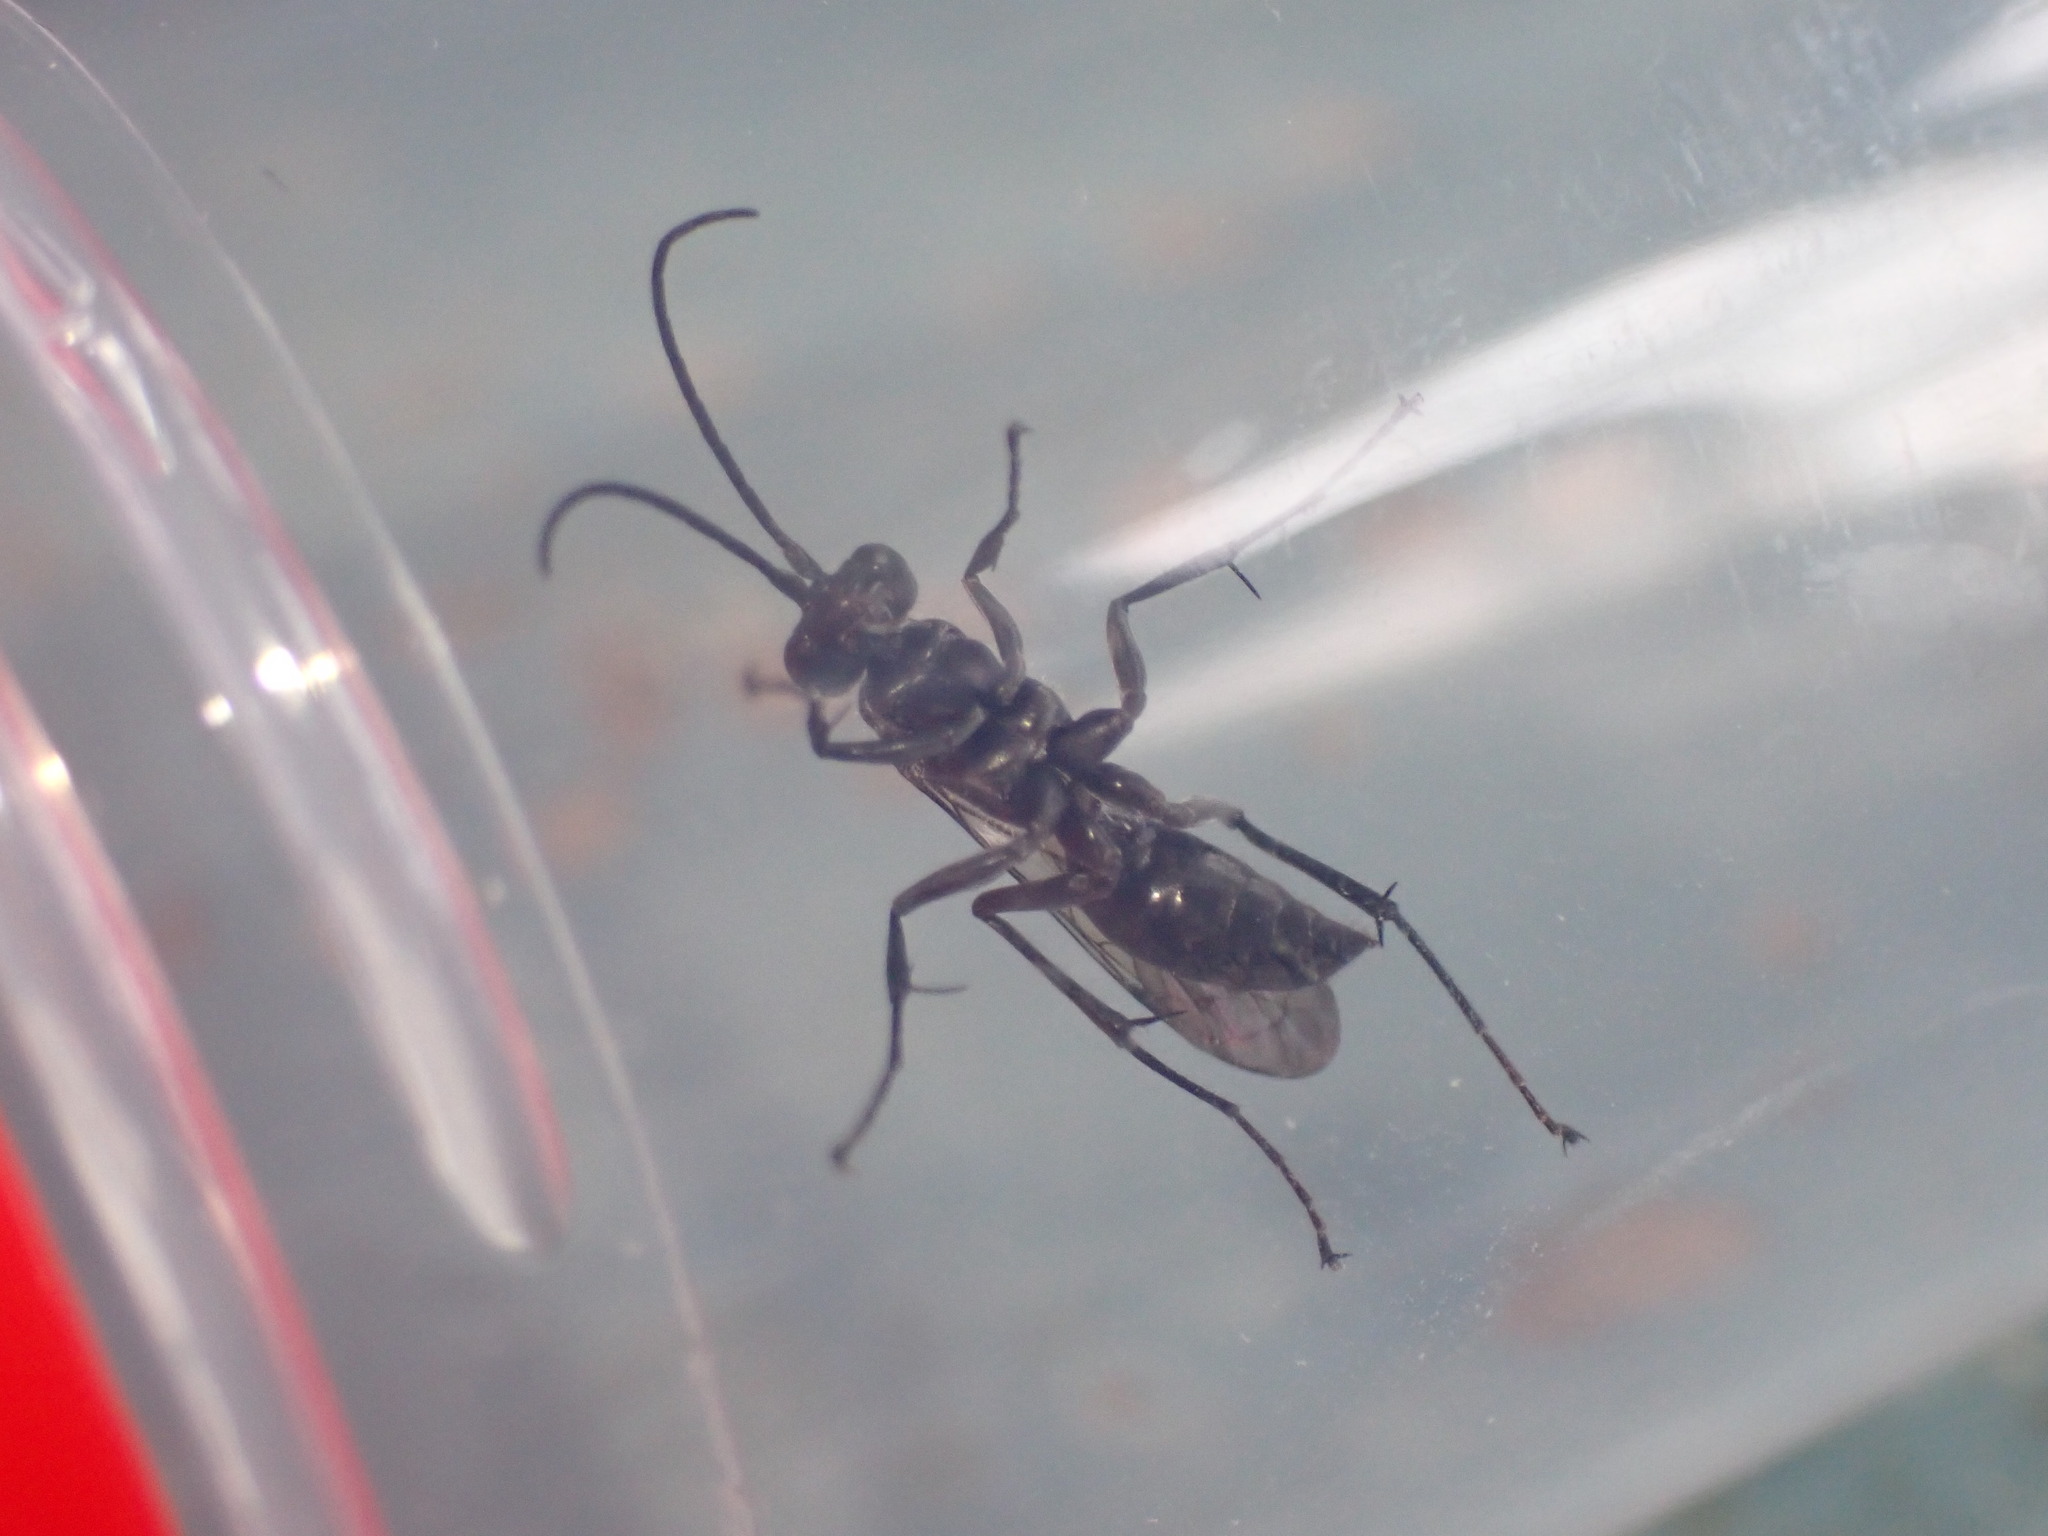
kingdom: Animalia
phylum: Arthropoda
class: Insecta
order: Hymenoptera
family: Pompilidae
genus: Auplopus
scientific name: Auplopus carbonarius
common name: Spider wasp
